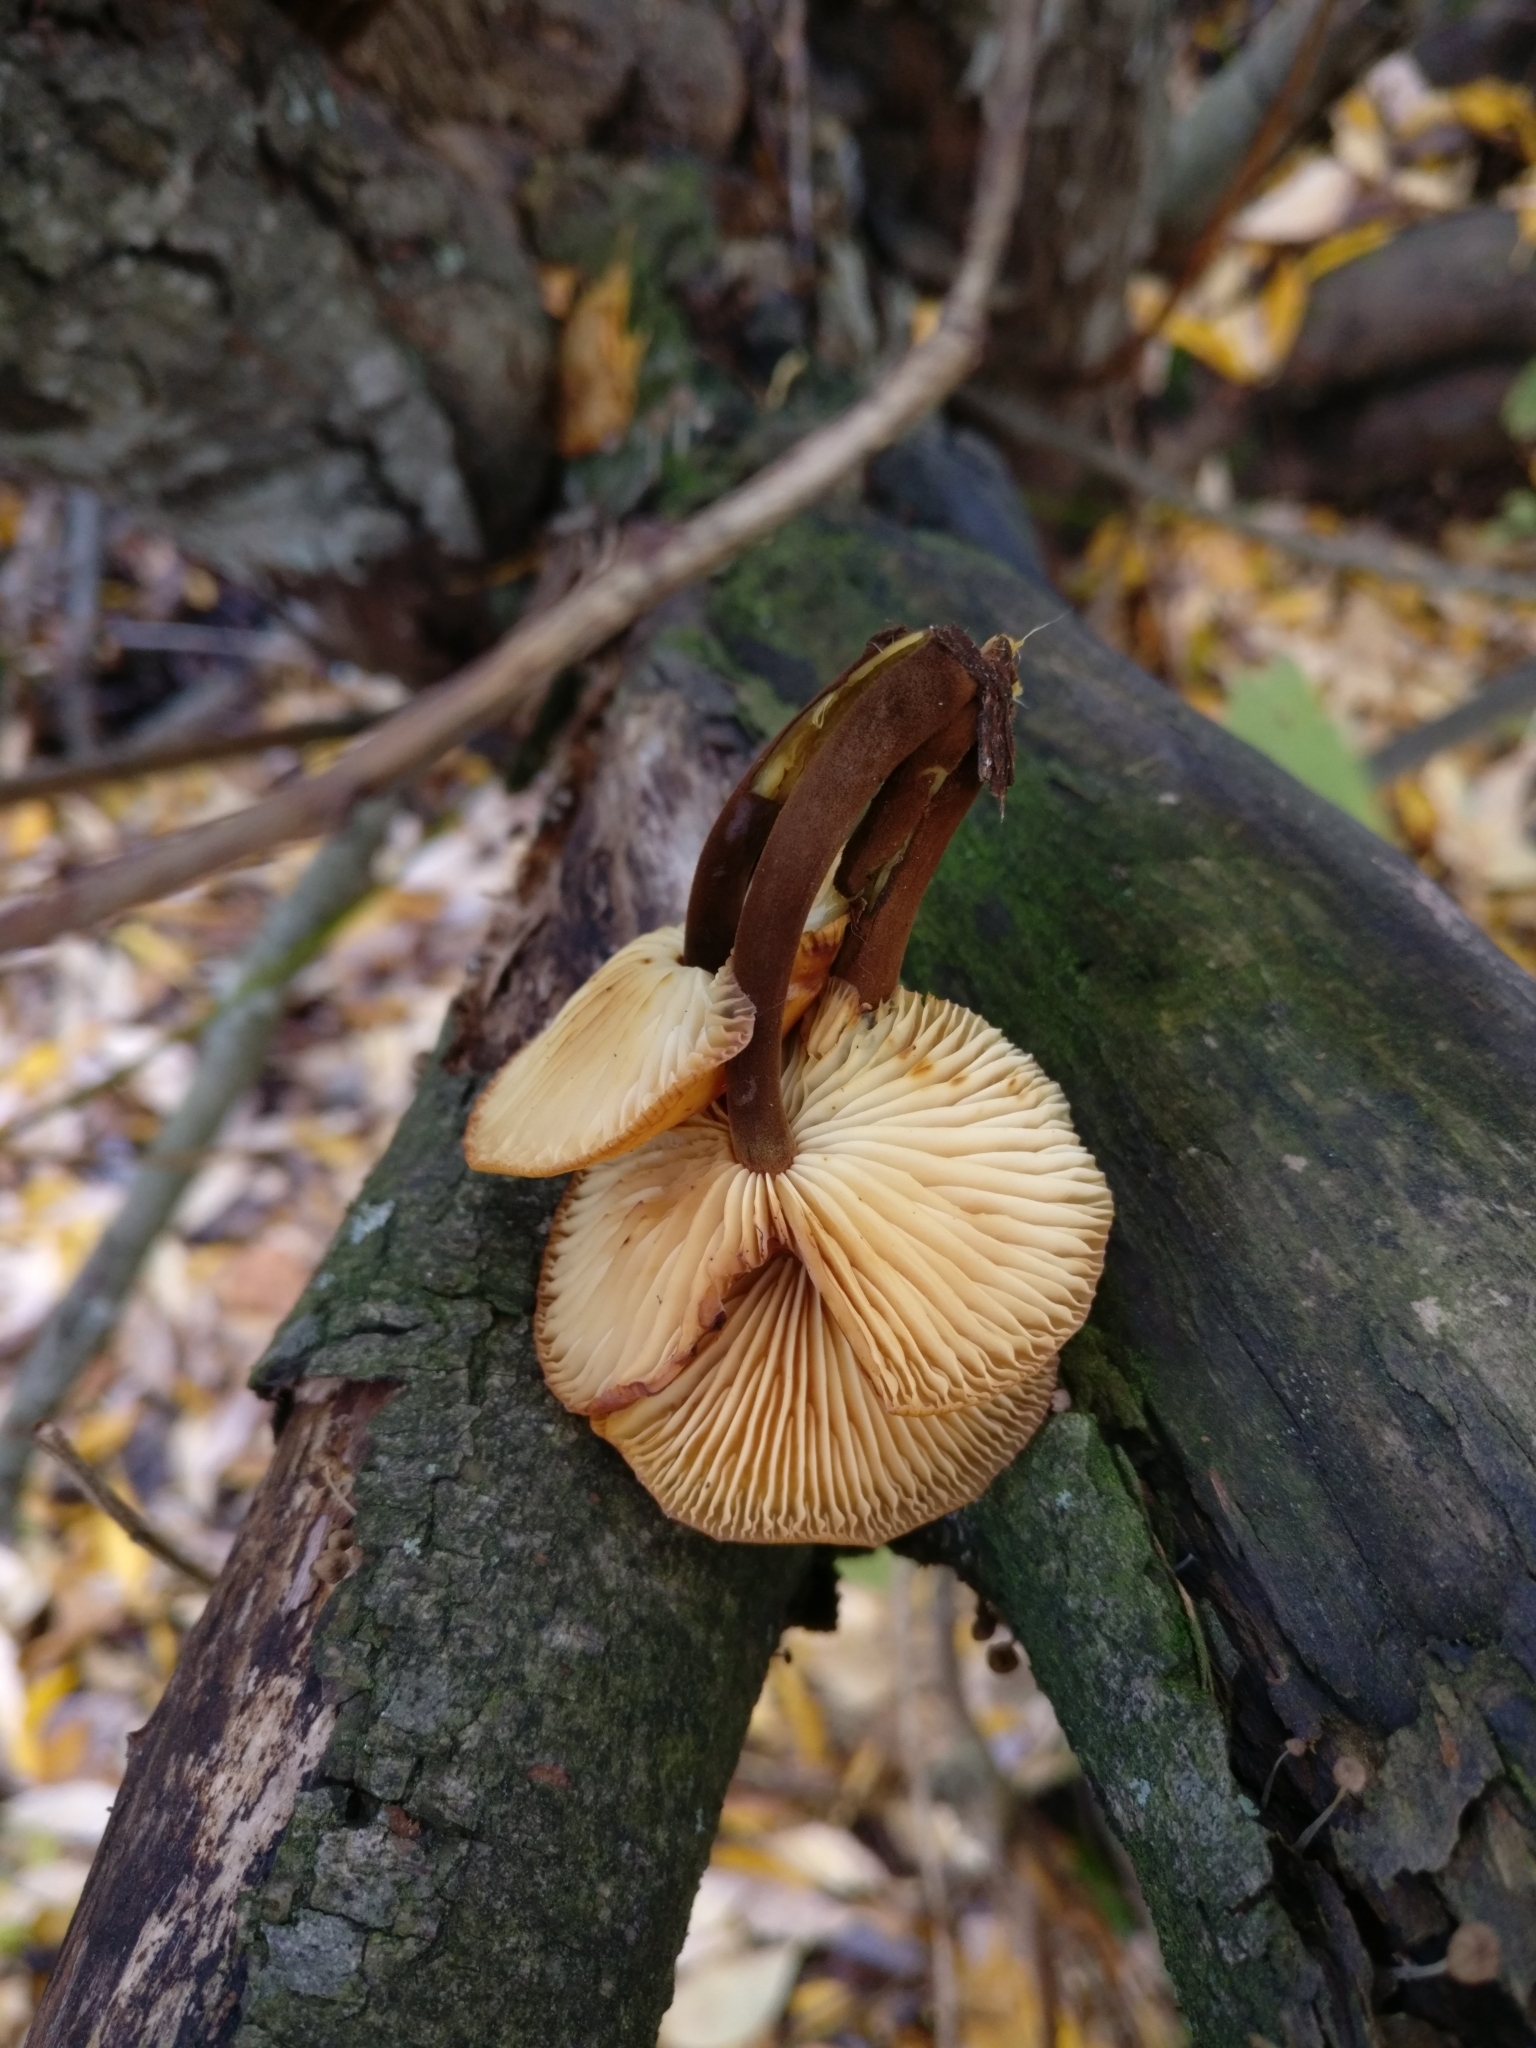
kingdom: Fungi
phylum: Basidiomycota
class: Agaricomycetes
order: Agaricales
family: Physalacriaceae
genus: Flammulina
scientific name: Flammulina
